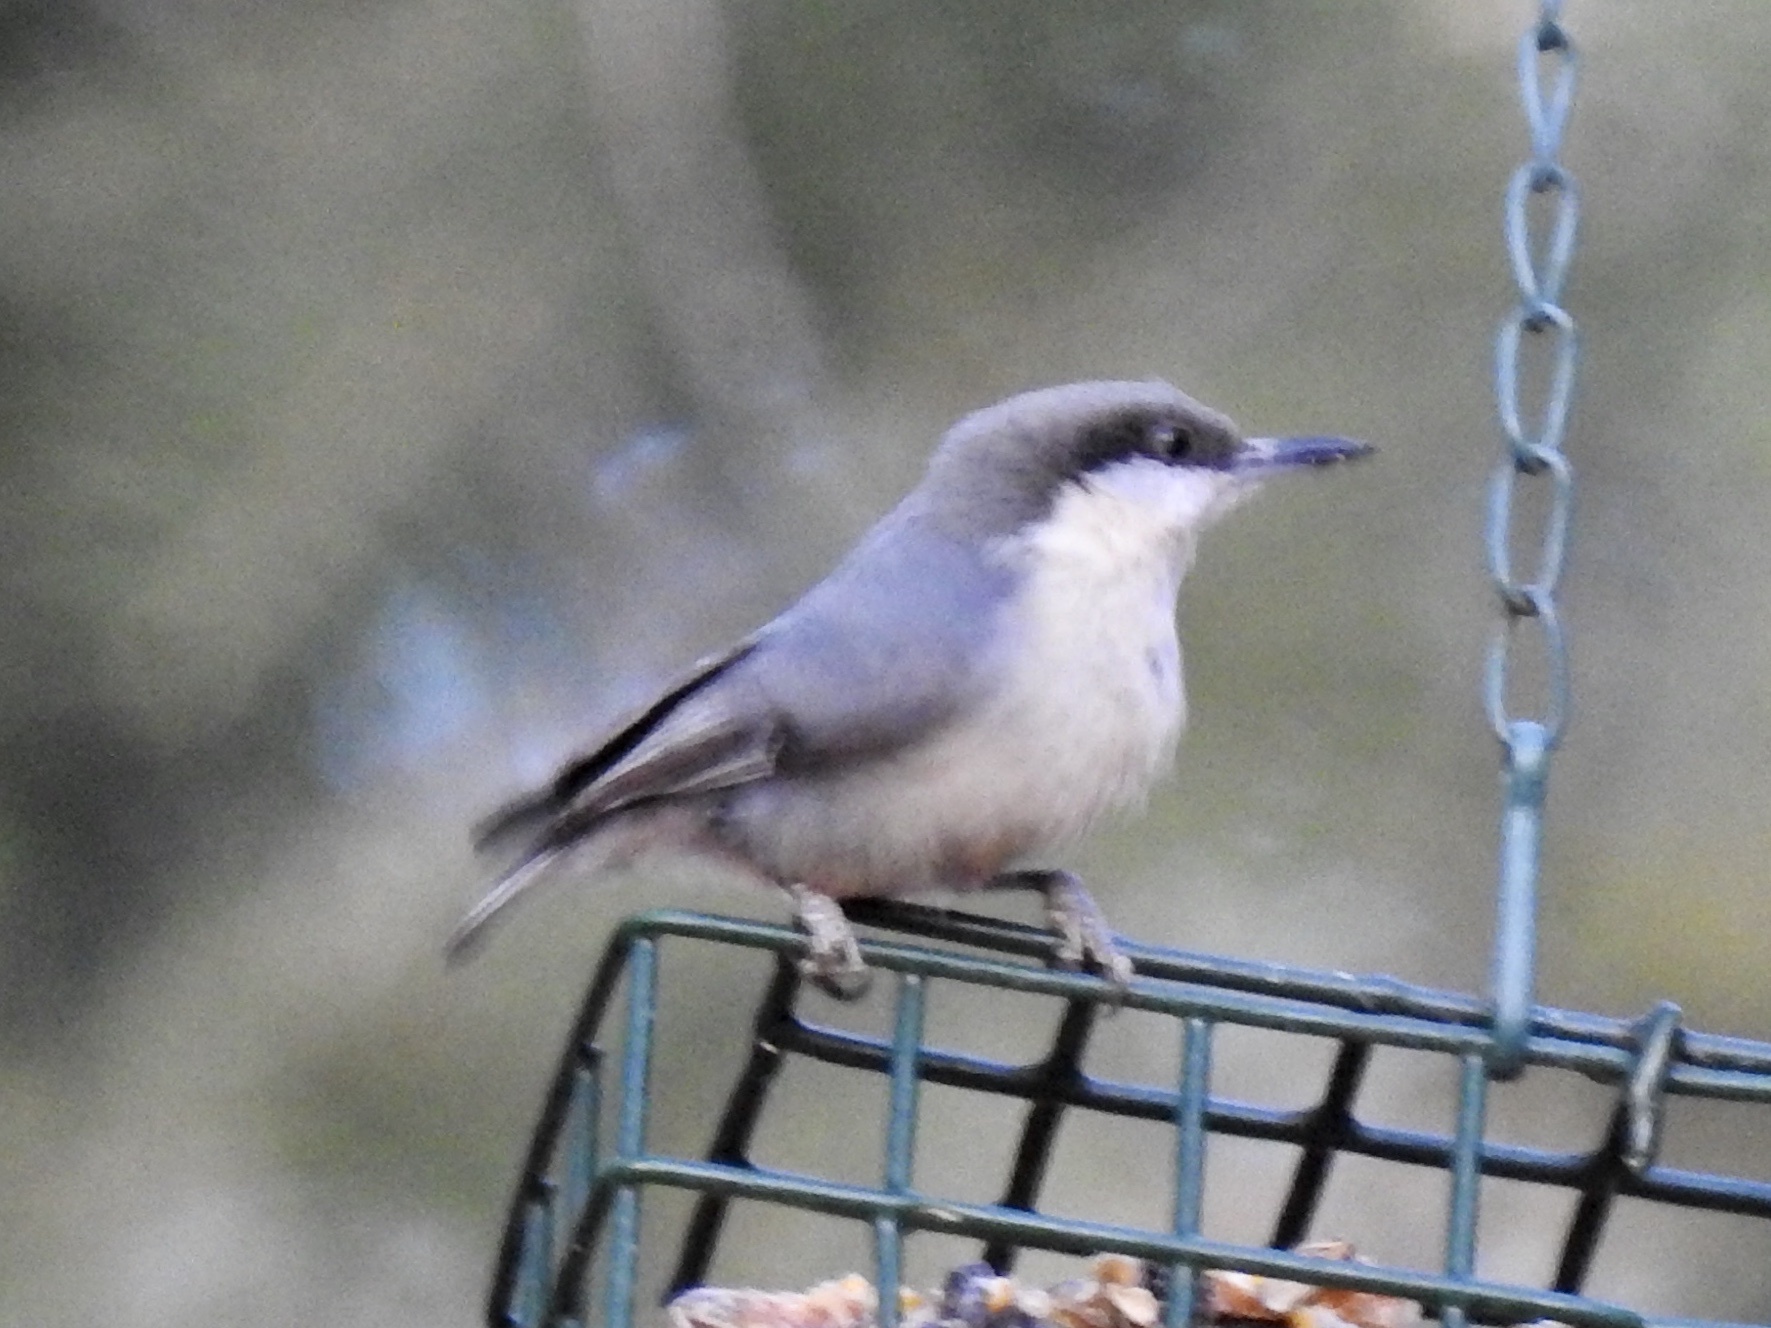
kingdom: Animalia
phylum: Chordata
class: Aves
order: Passeriformes
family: Sittidae
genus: Sitta
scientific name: Sitta pygmaea
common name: Pygmy nuthatch
